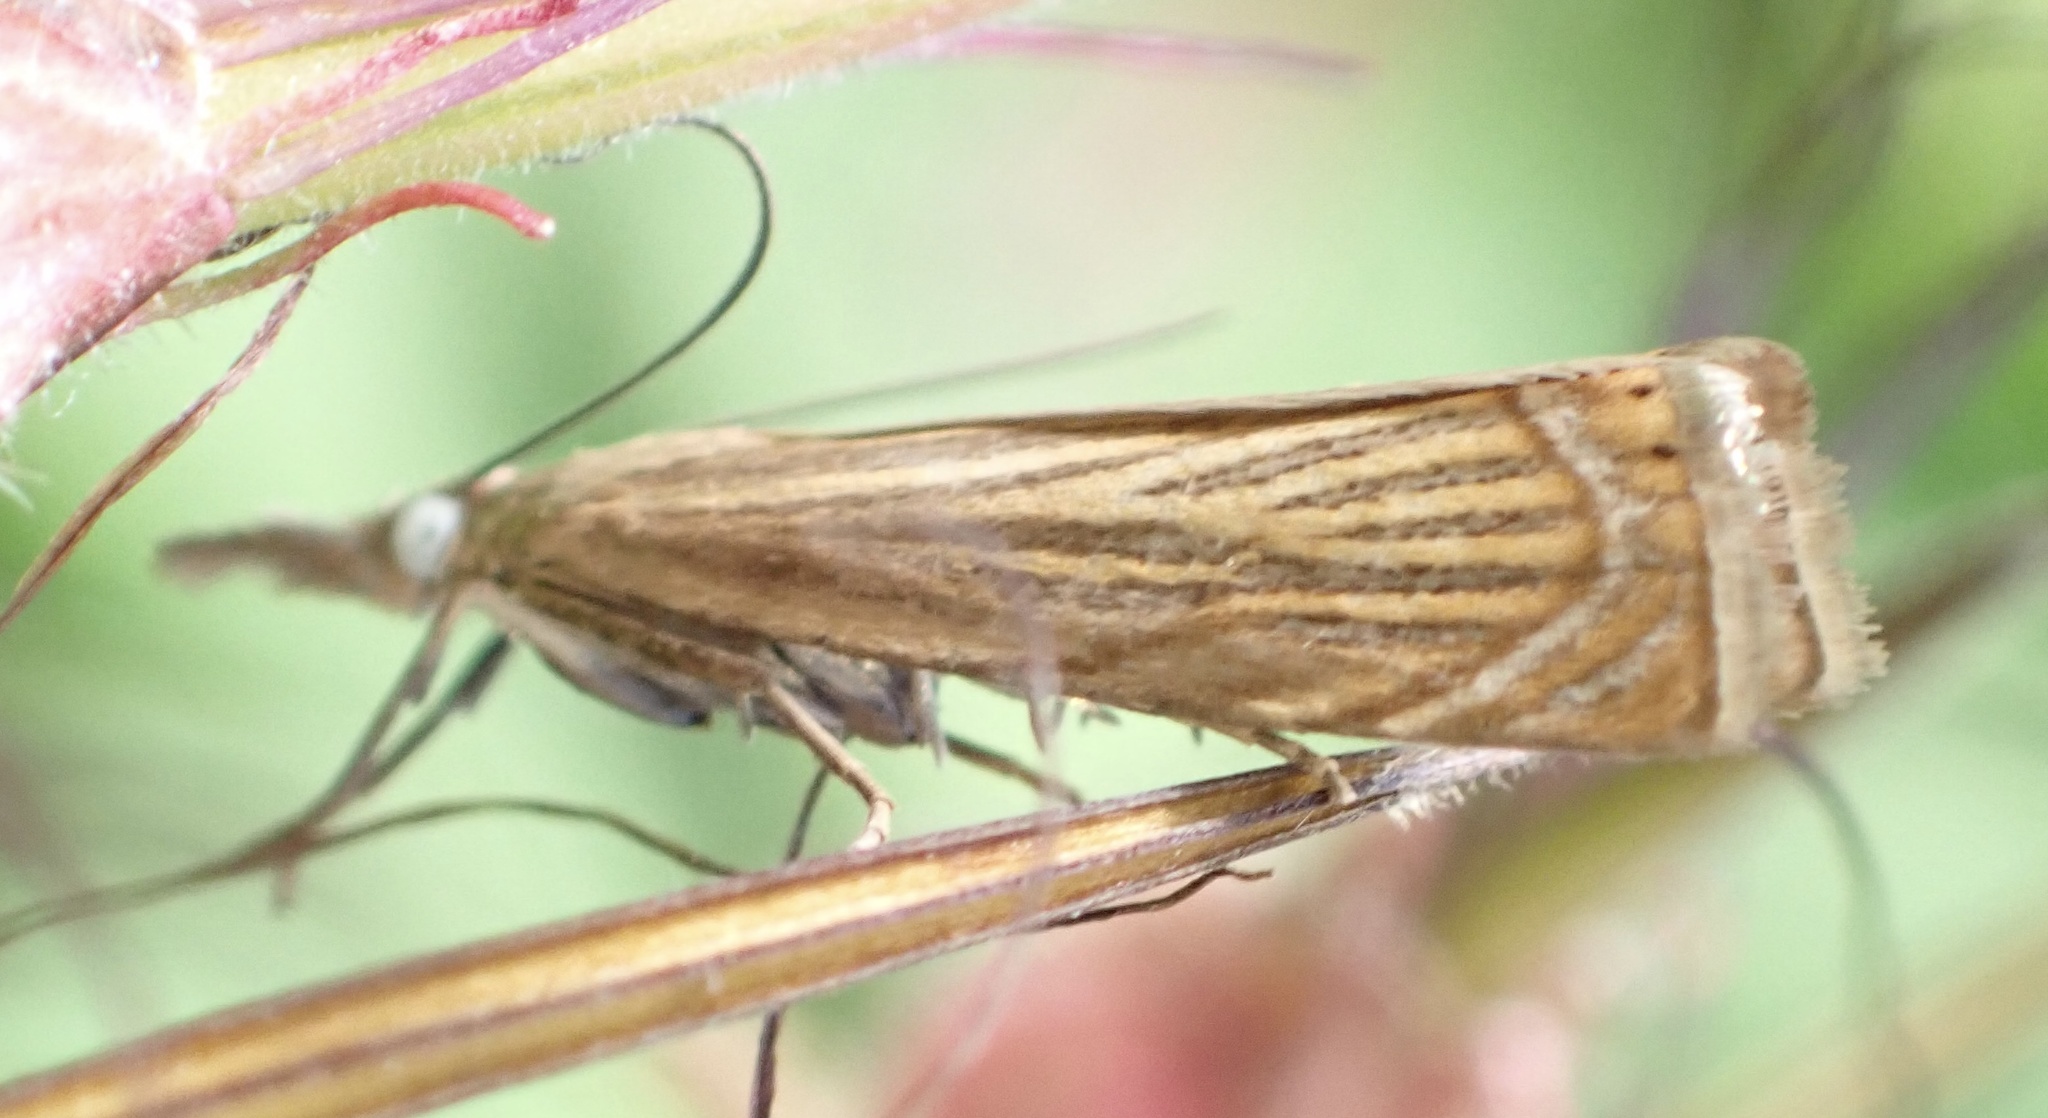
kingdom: Animalia
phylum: Arthropoda
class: Insecta
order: Lepidoptera
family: Crambidae
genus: Chrysoteuchia
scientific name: Chrysoteuchia culmella
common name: Garden grass-veneer
